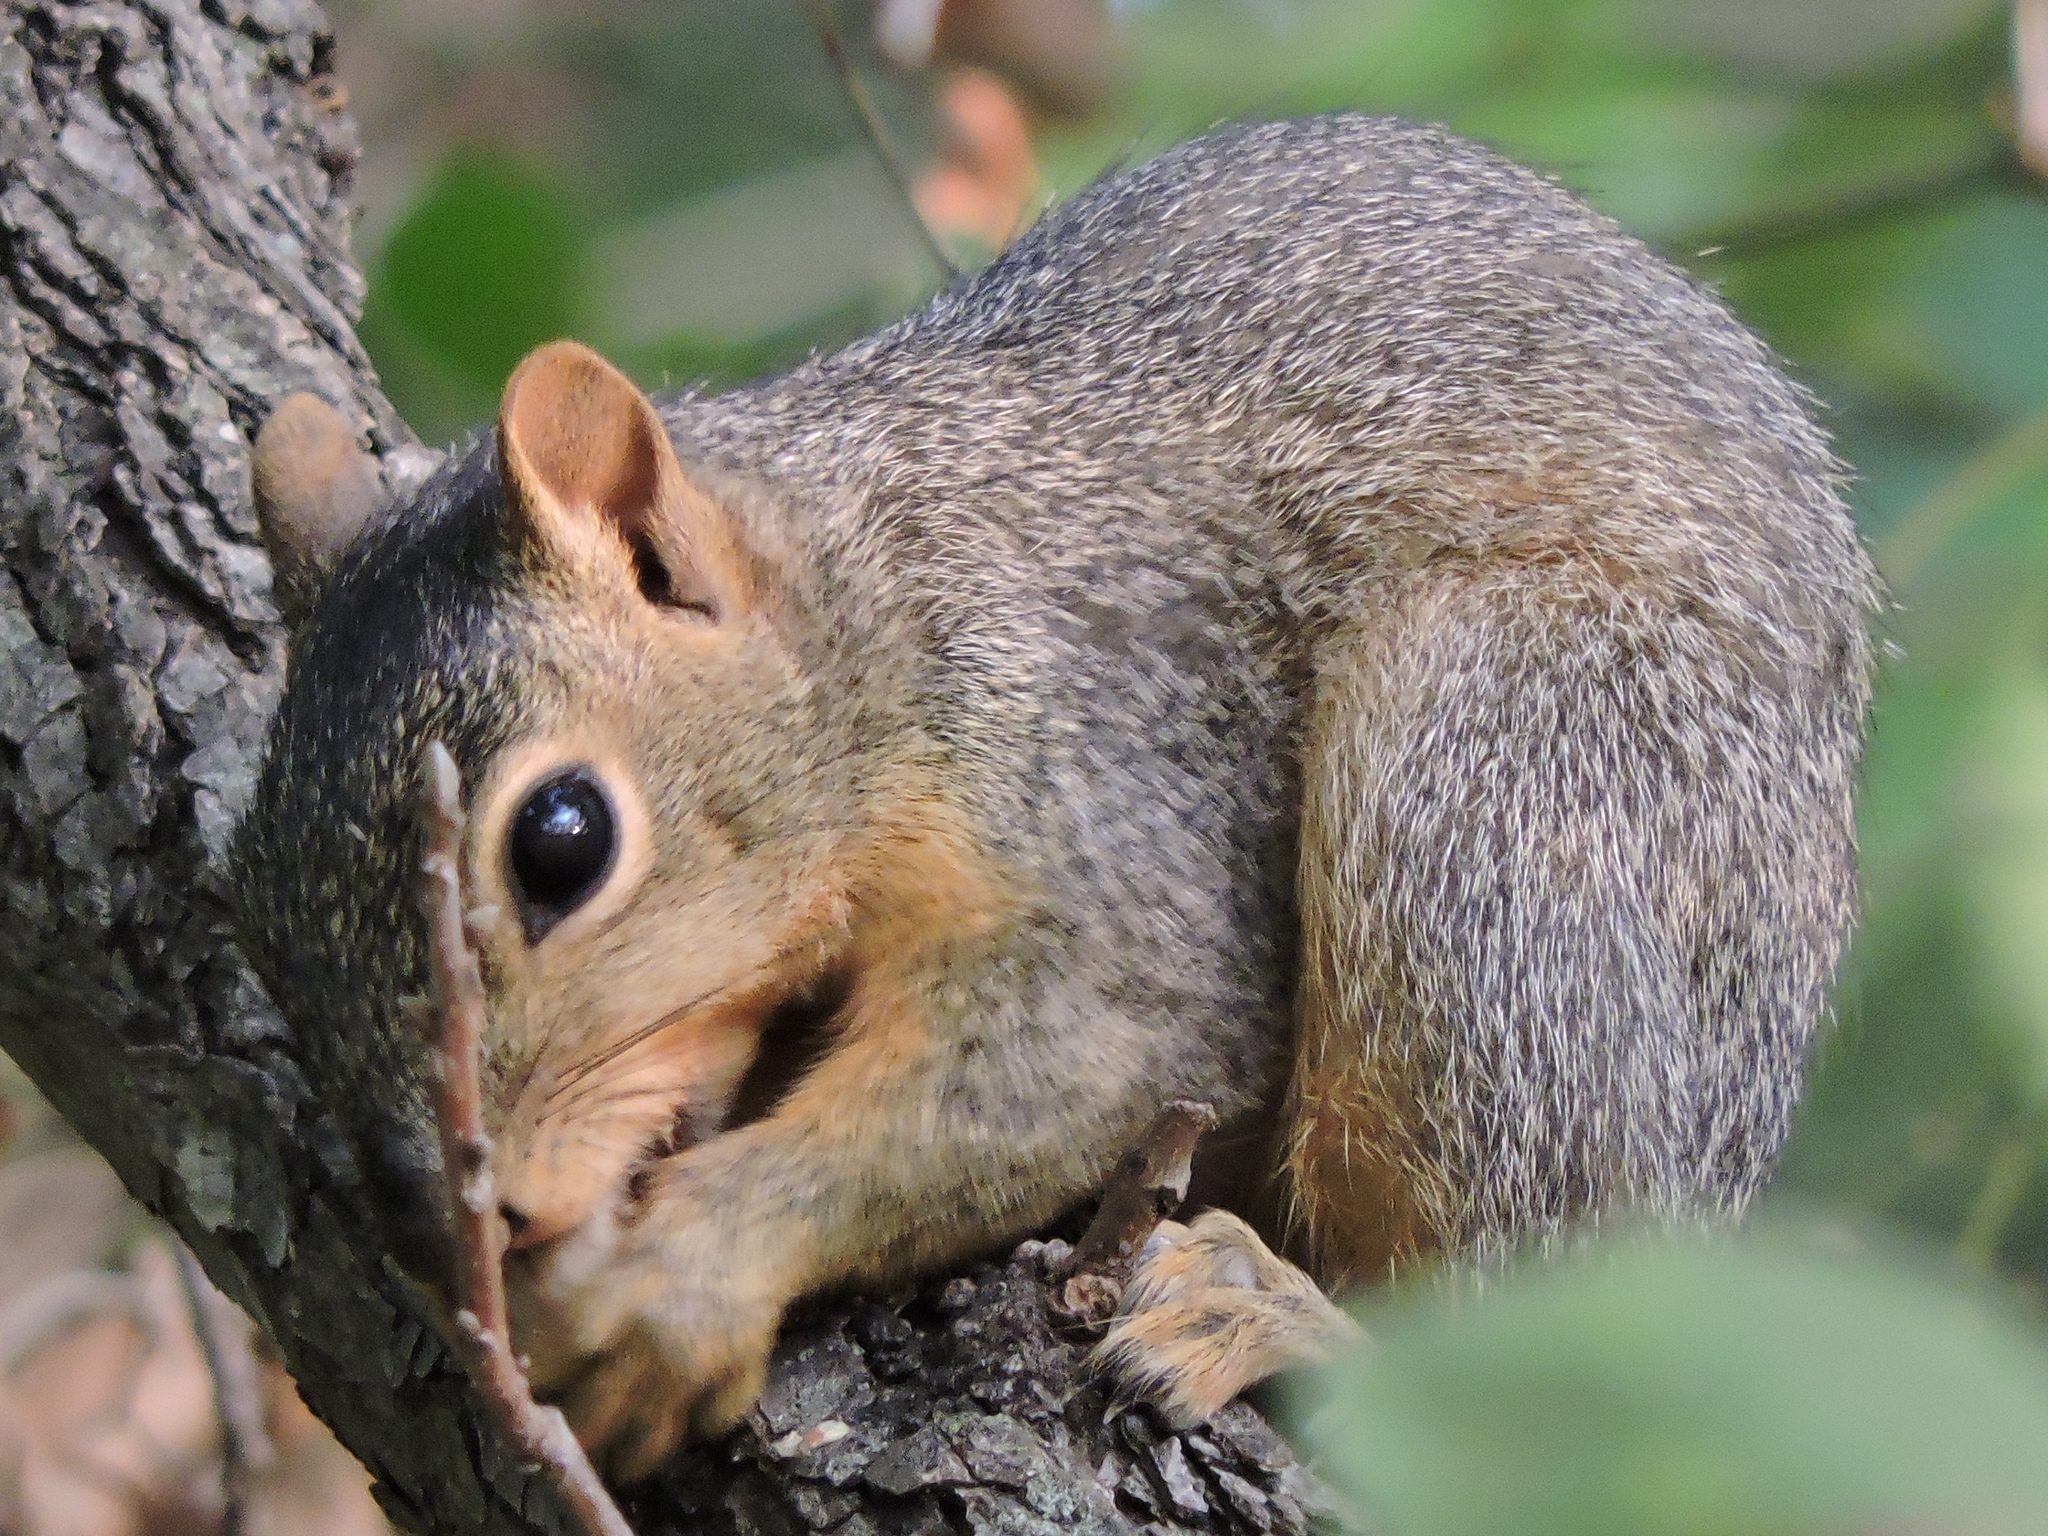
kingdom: Animalia
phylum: Chordata
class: Mammalia
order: Rodentia
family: Sciuridae
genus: Sciurus
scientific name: Sciurus niger
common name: Fox squirrel
